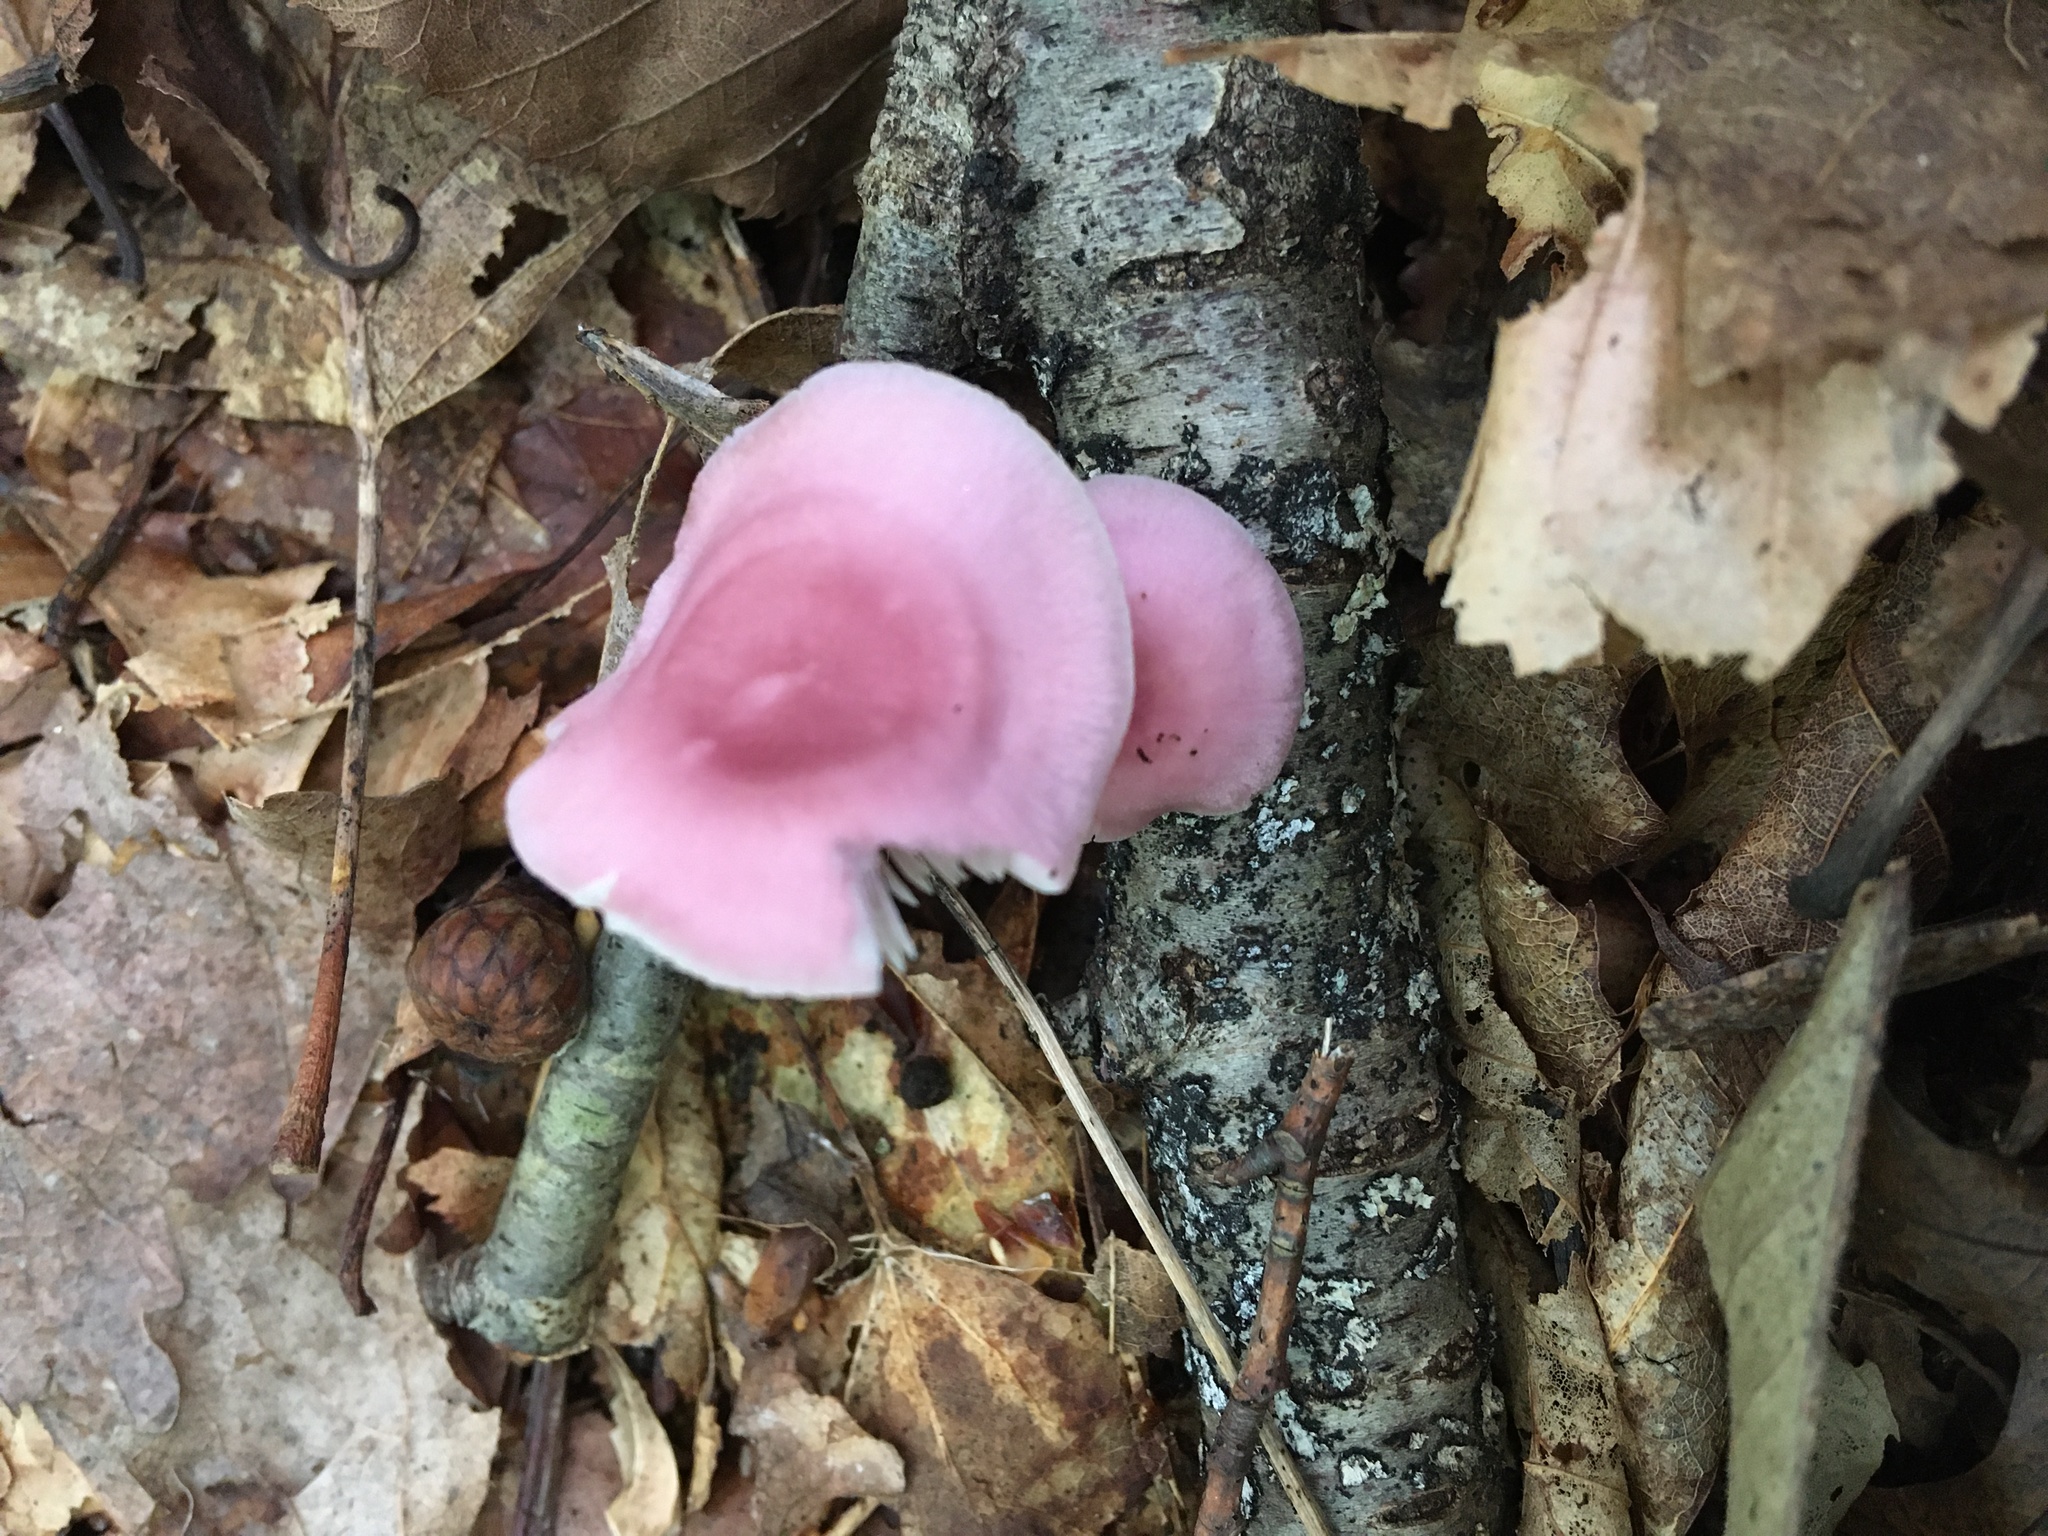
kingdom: Fungi
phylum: Basidiomycota
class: Agaricomycetes
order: Agaricales
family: Mycenaceae
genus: Mycena
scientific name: Mycena pura
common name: Lilac bonnet
